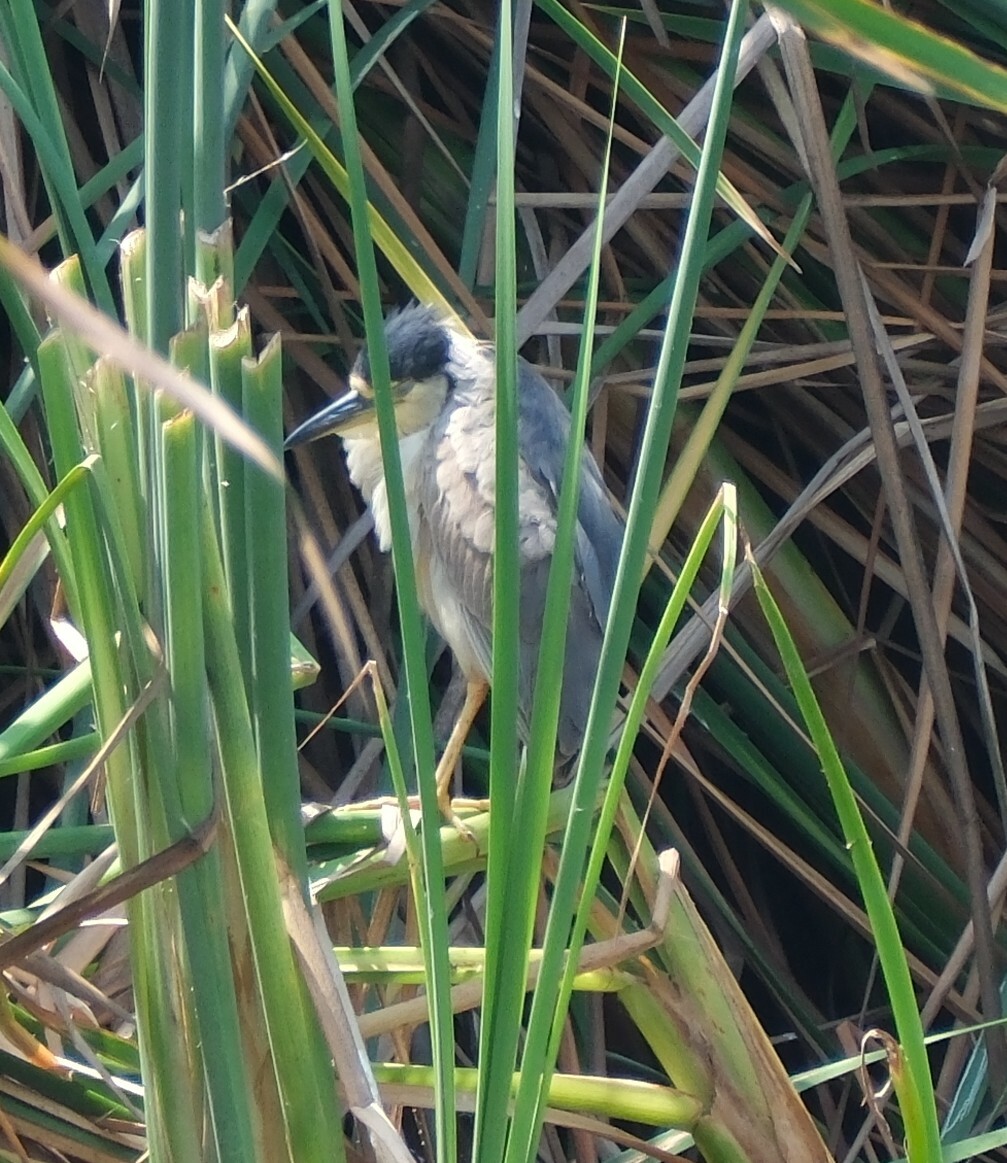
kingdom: Animalia
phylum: Chordata
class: Aves
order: Pelecaniformes
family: Ardeidae
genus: Nycticorax
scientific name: Nycticorax nycticorax
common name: Black-crowned night heron
